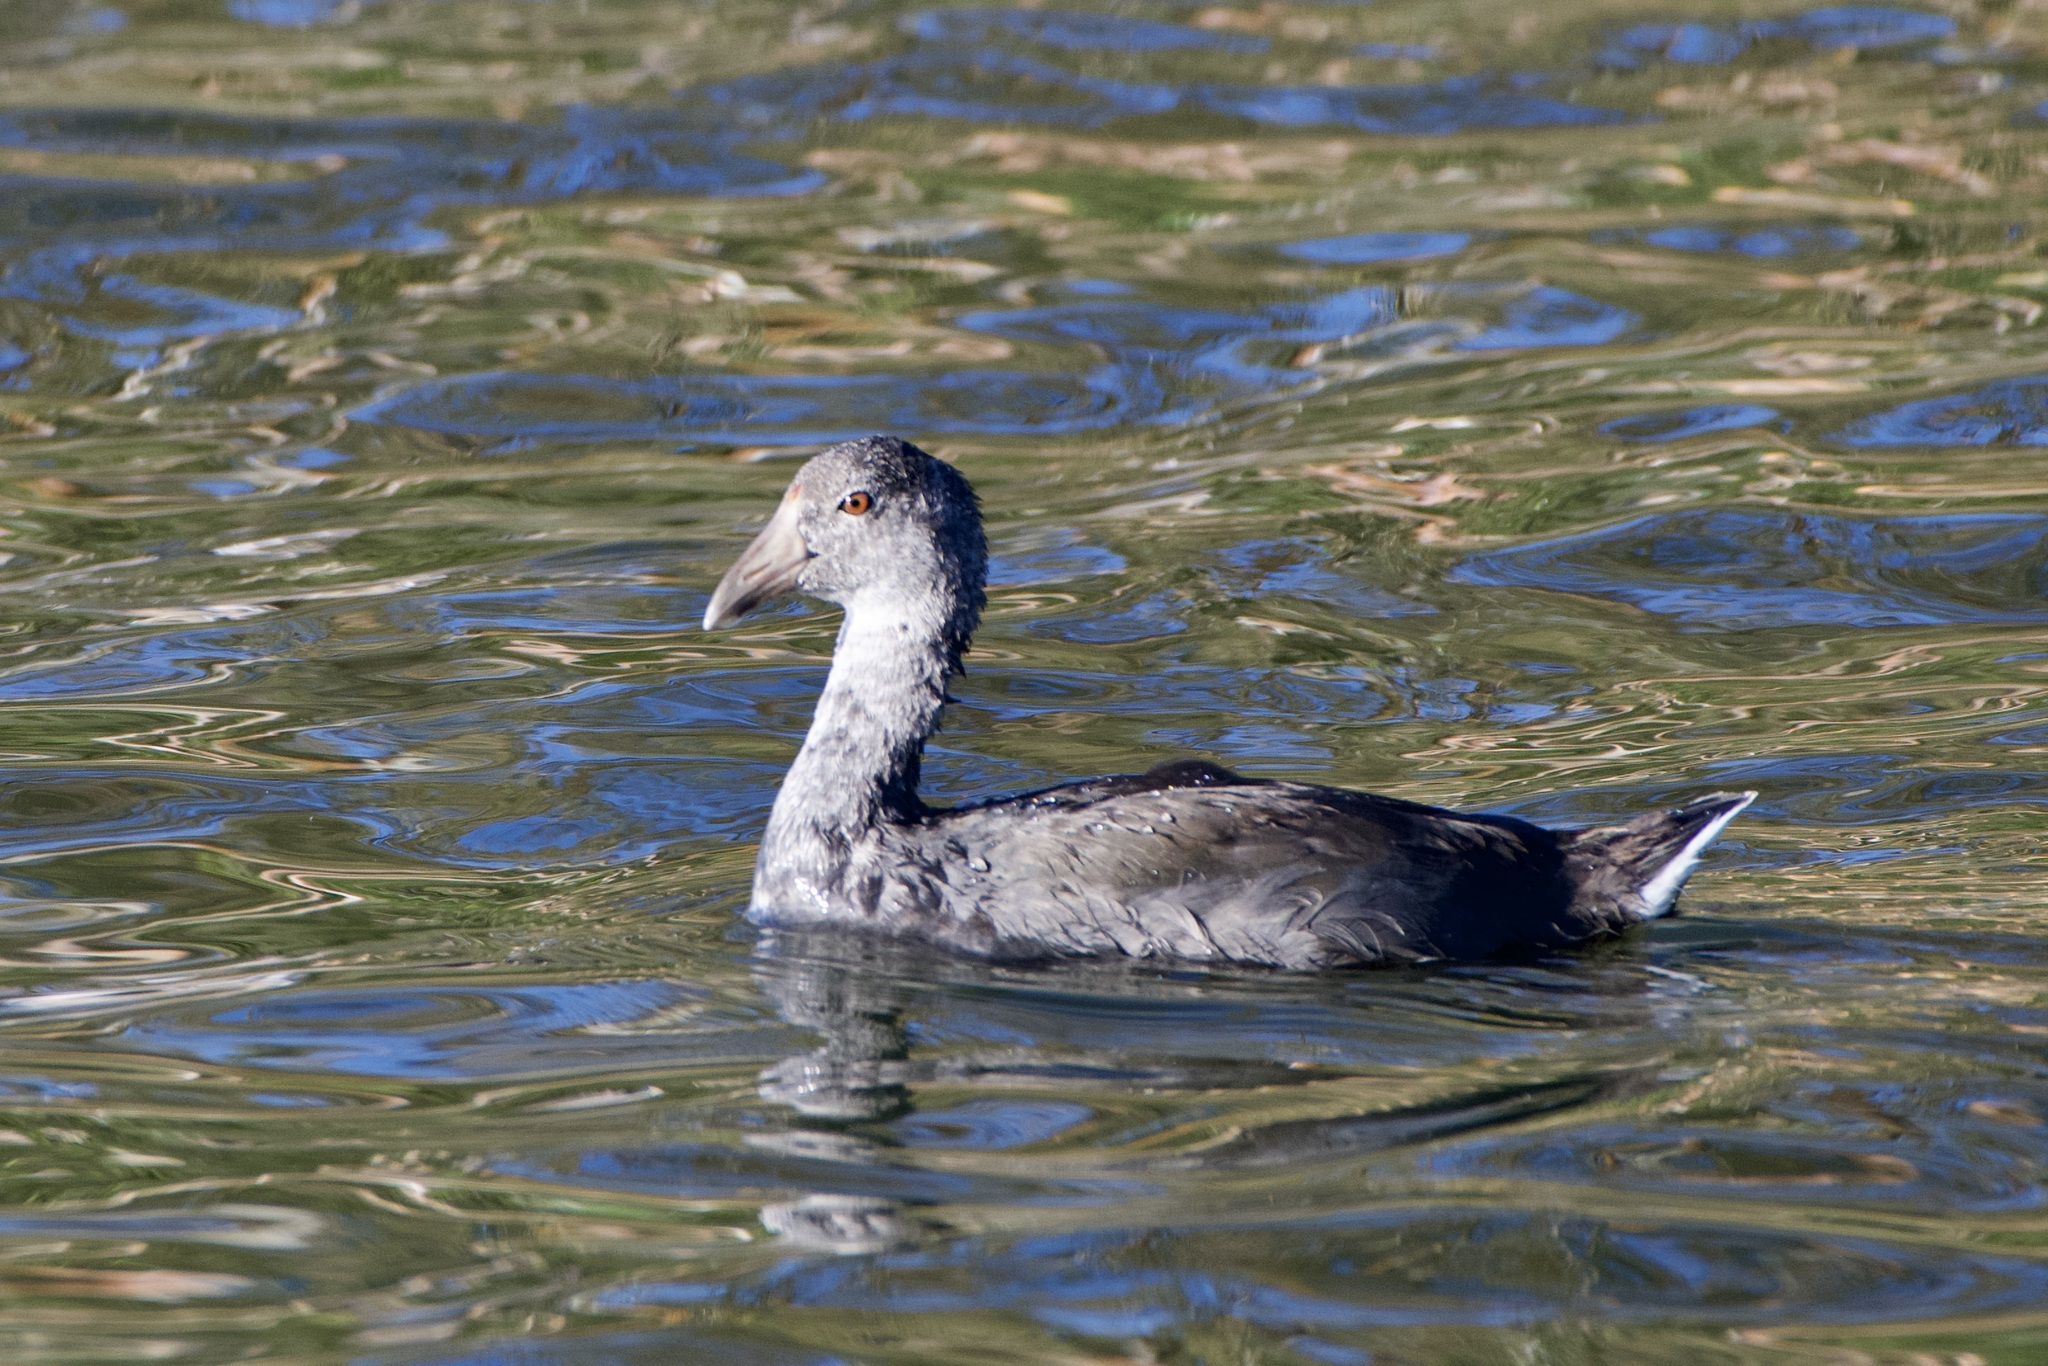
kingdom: Animalia
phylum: Chordata
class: Aves
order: Gruiformes
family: Rallidae
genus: Fulica
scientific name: Fulica americana
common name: American coot
